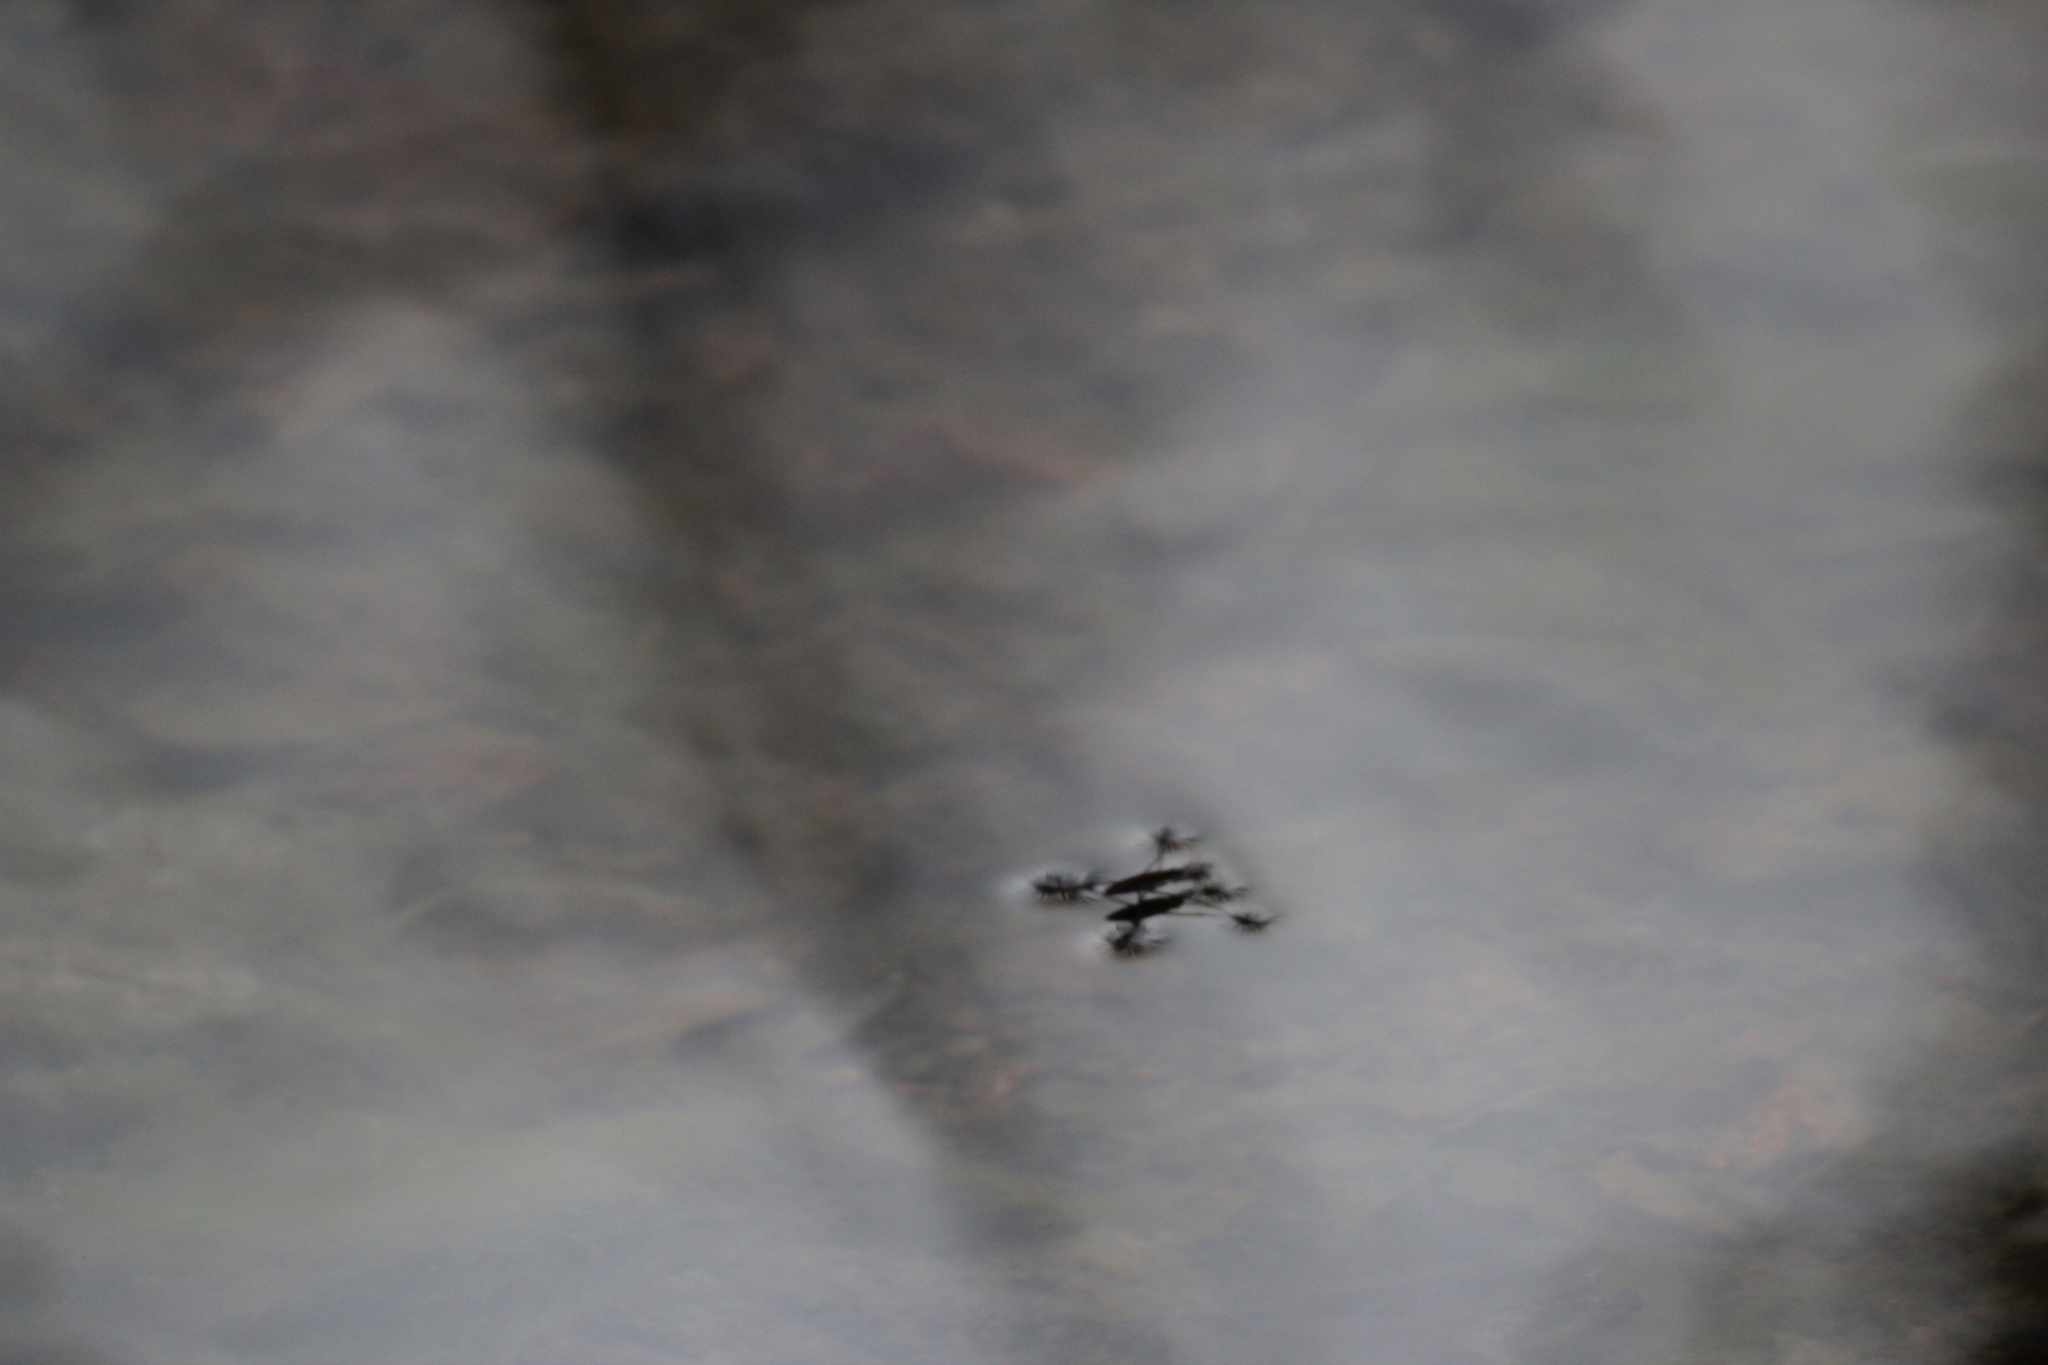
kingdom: Animalia
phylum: Arthropoda
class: Insecta
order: Hemiptera
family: Gerridae
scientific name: Gerridae
